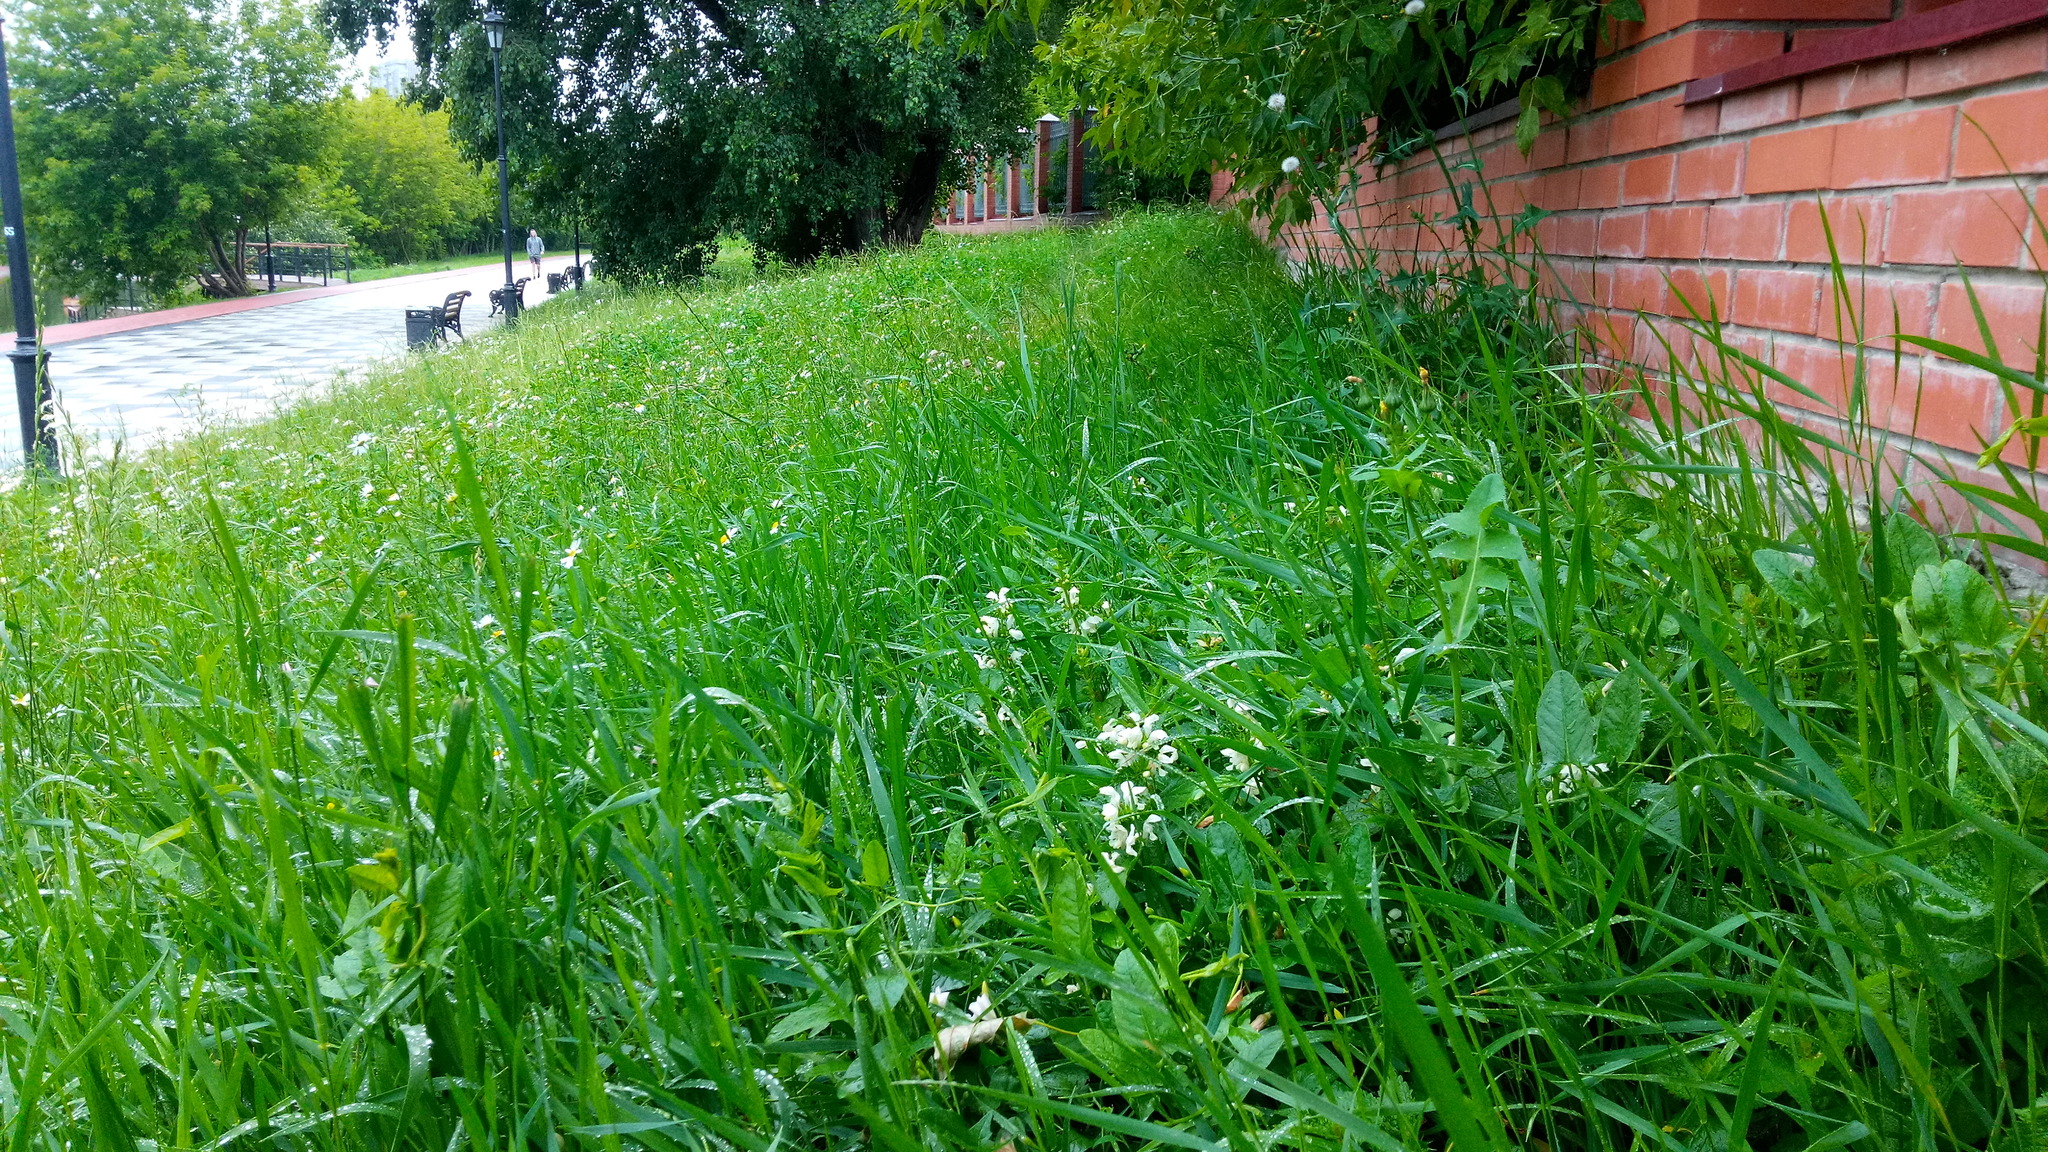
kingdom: Plantae
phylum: Tracheophyta
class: Magnoliopsida
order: Lamiales
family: Lamiaceae
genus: Lamium
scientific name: Lamium album
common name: White dead-nettle
